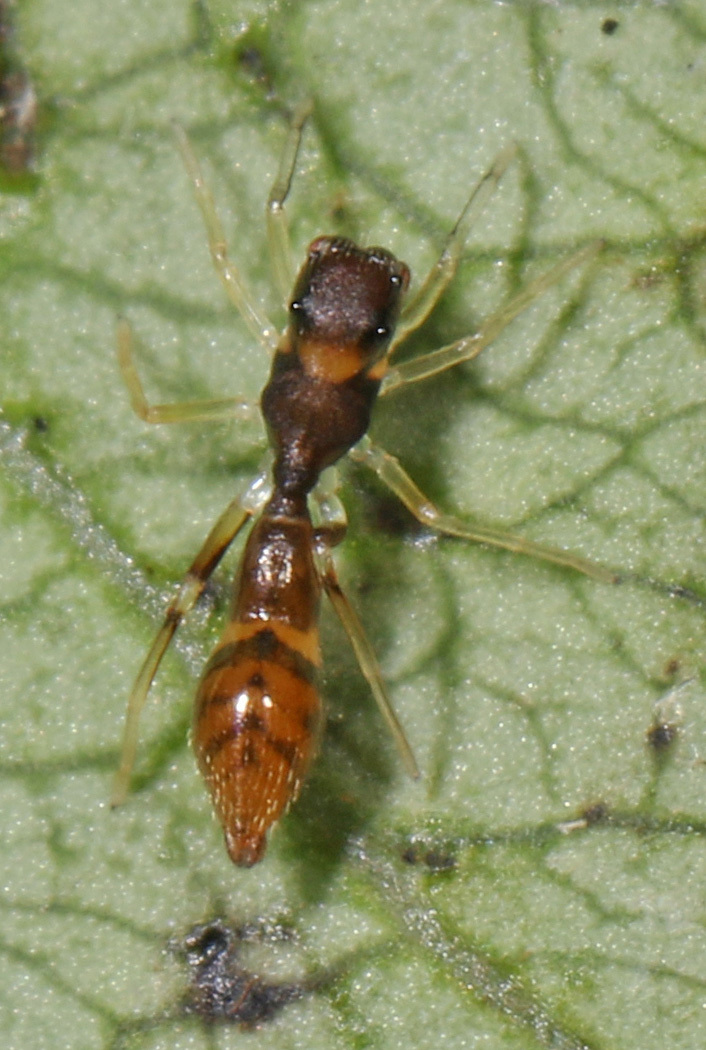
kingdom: Animalia
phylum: Arthropoda
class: Arachnida
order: Araneae
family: Salticidae
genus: Synemosyna
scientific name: Synemosyna formica
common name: Slender ant-mimic jumping spider
